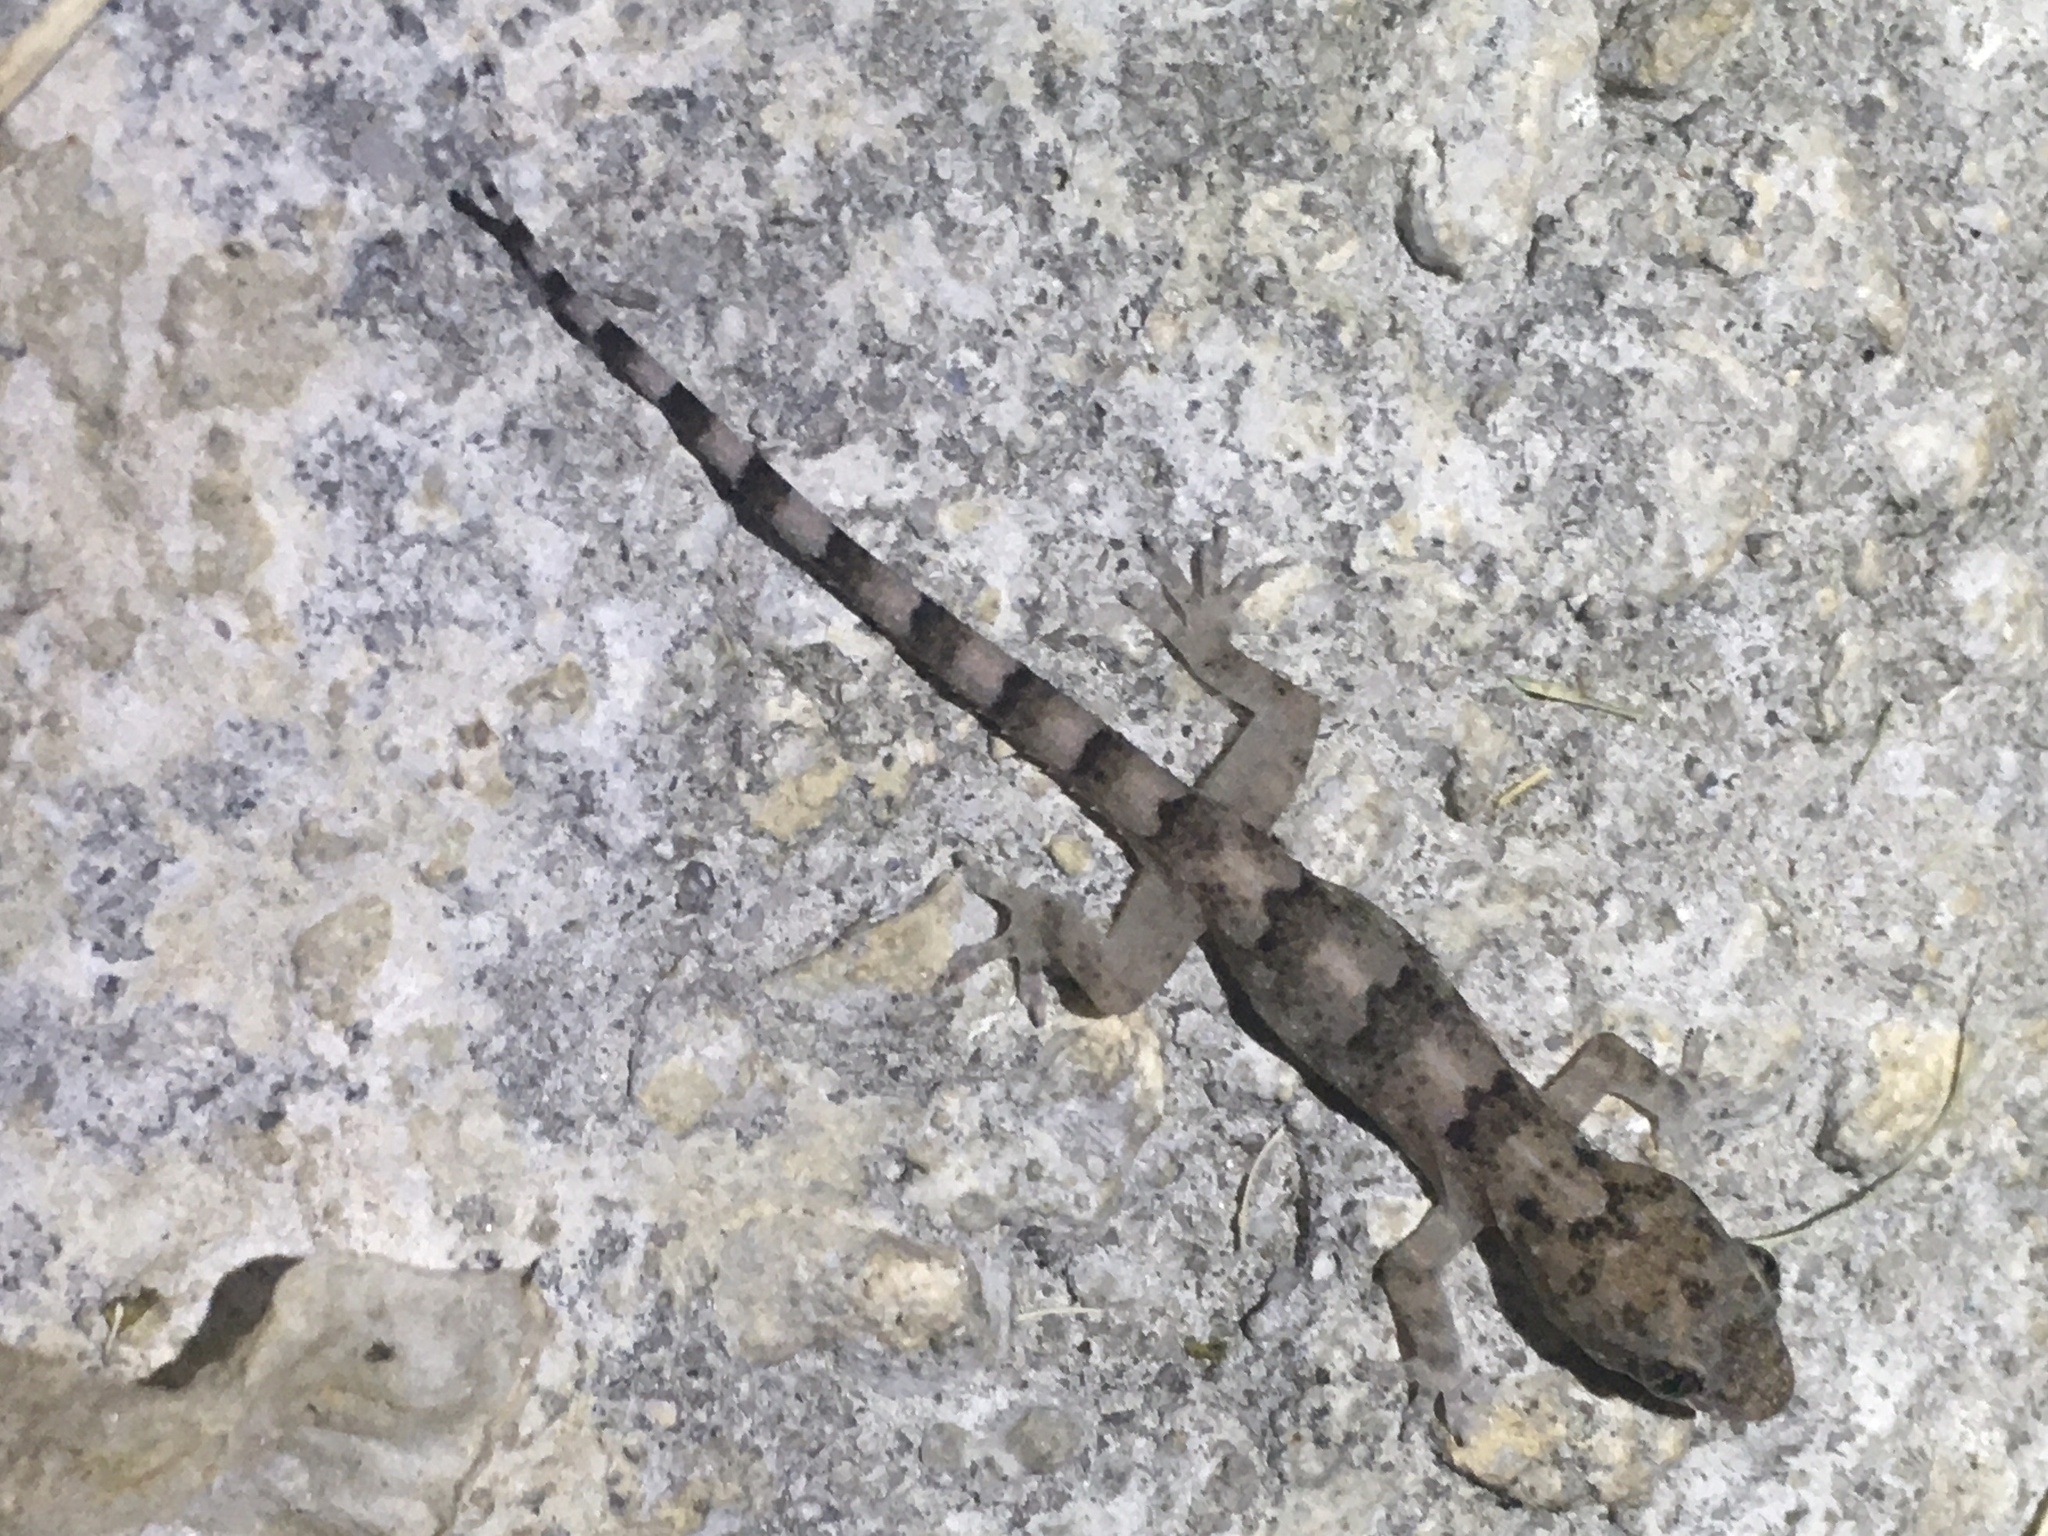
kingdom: Animalia
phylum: Chordata
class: Squamata
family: Gekkonidae
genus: Hemidactylus
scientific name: Hemidactylus mabouia
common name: House gecko
